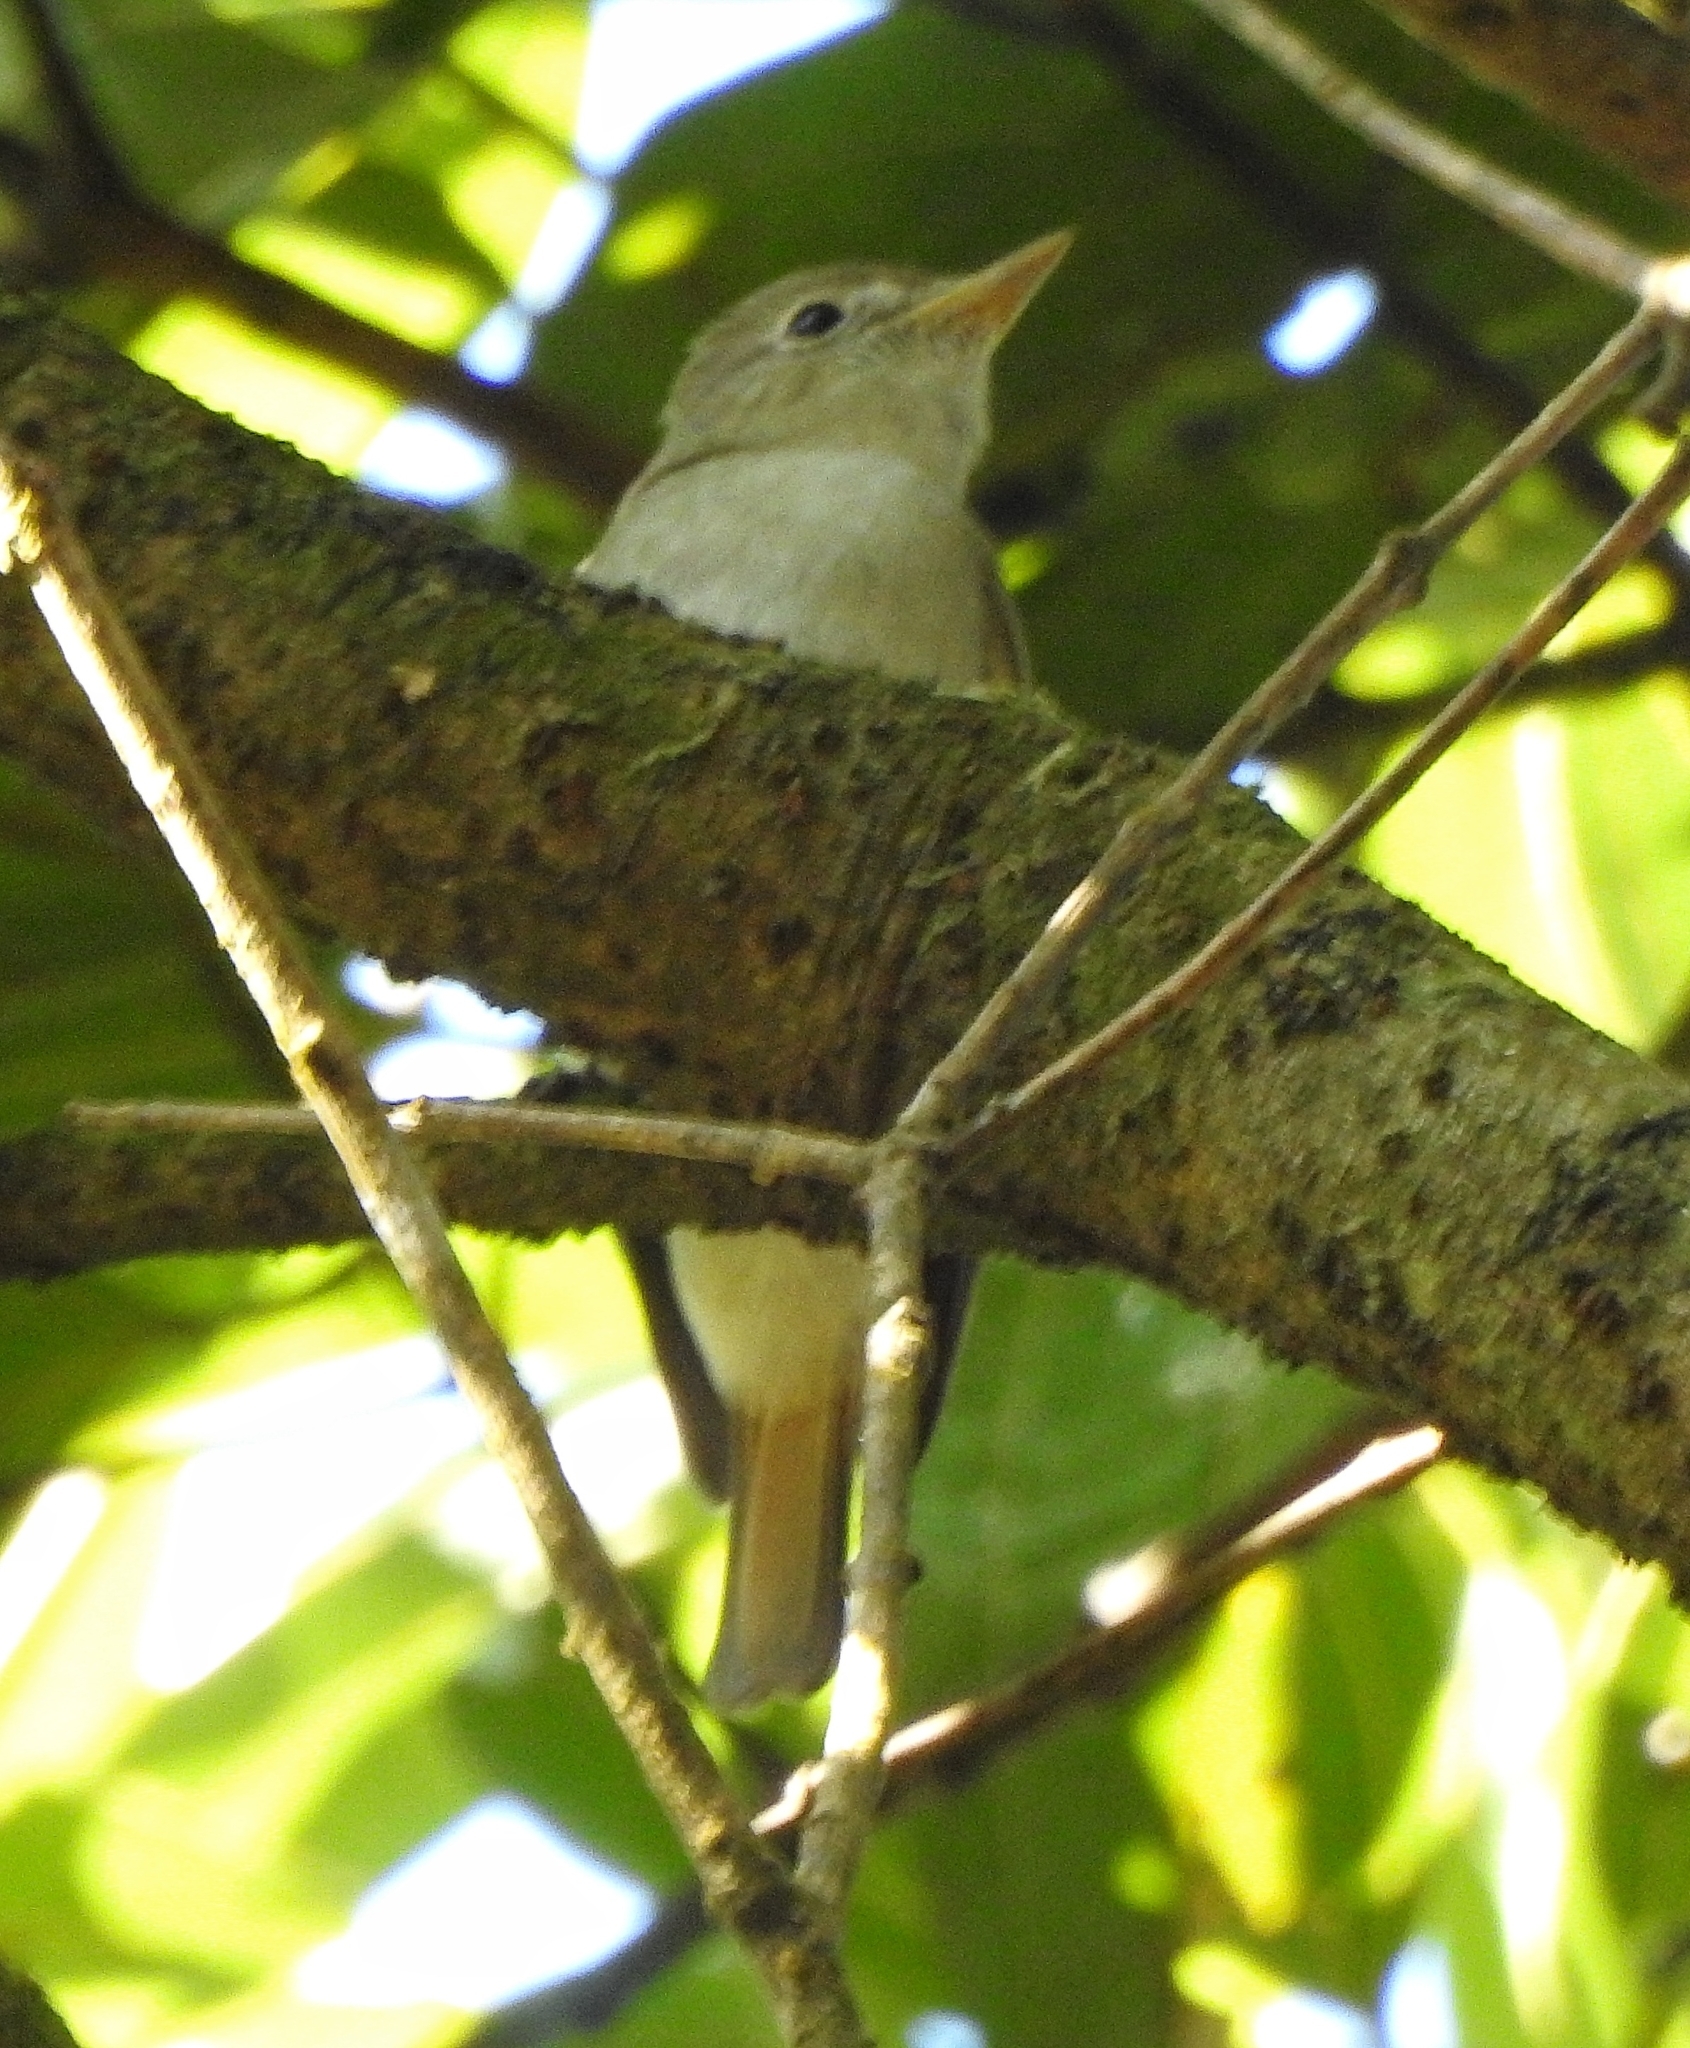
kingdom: Animalia
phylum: Chordata
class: Aves
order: Passeriformes
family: Muscicapidae
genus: Muscicapa
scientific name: Muscicapa ruficauda
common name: Rusty-tailed flycatcher
